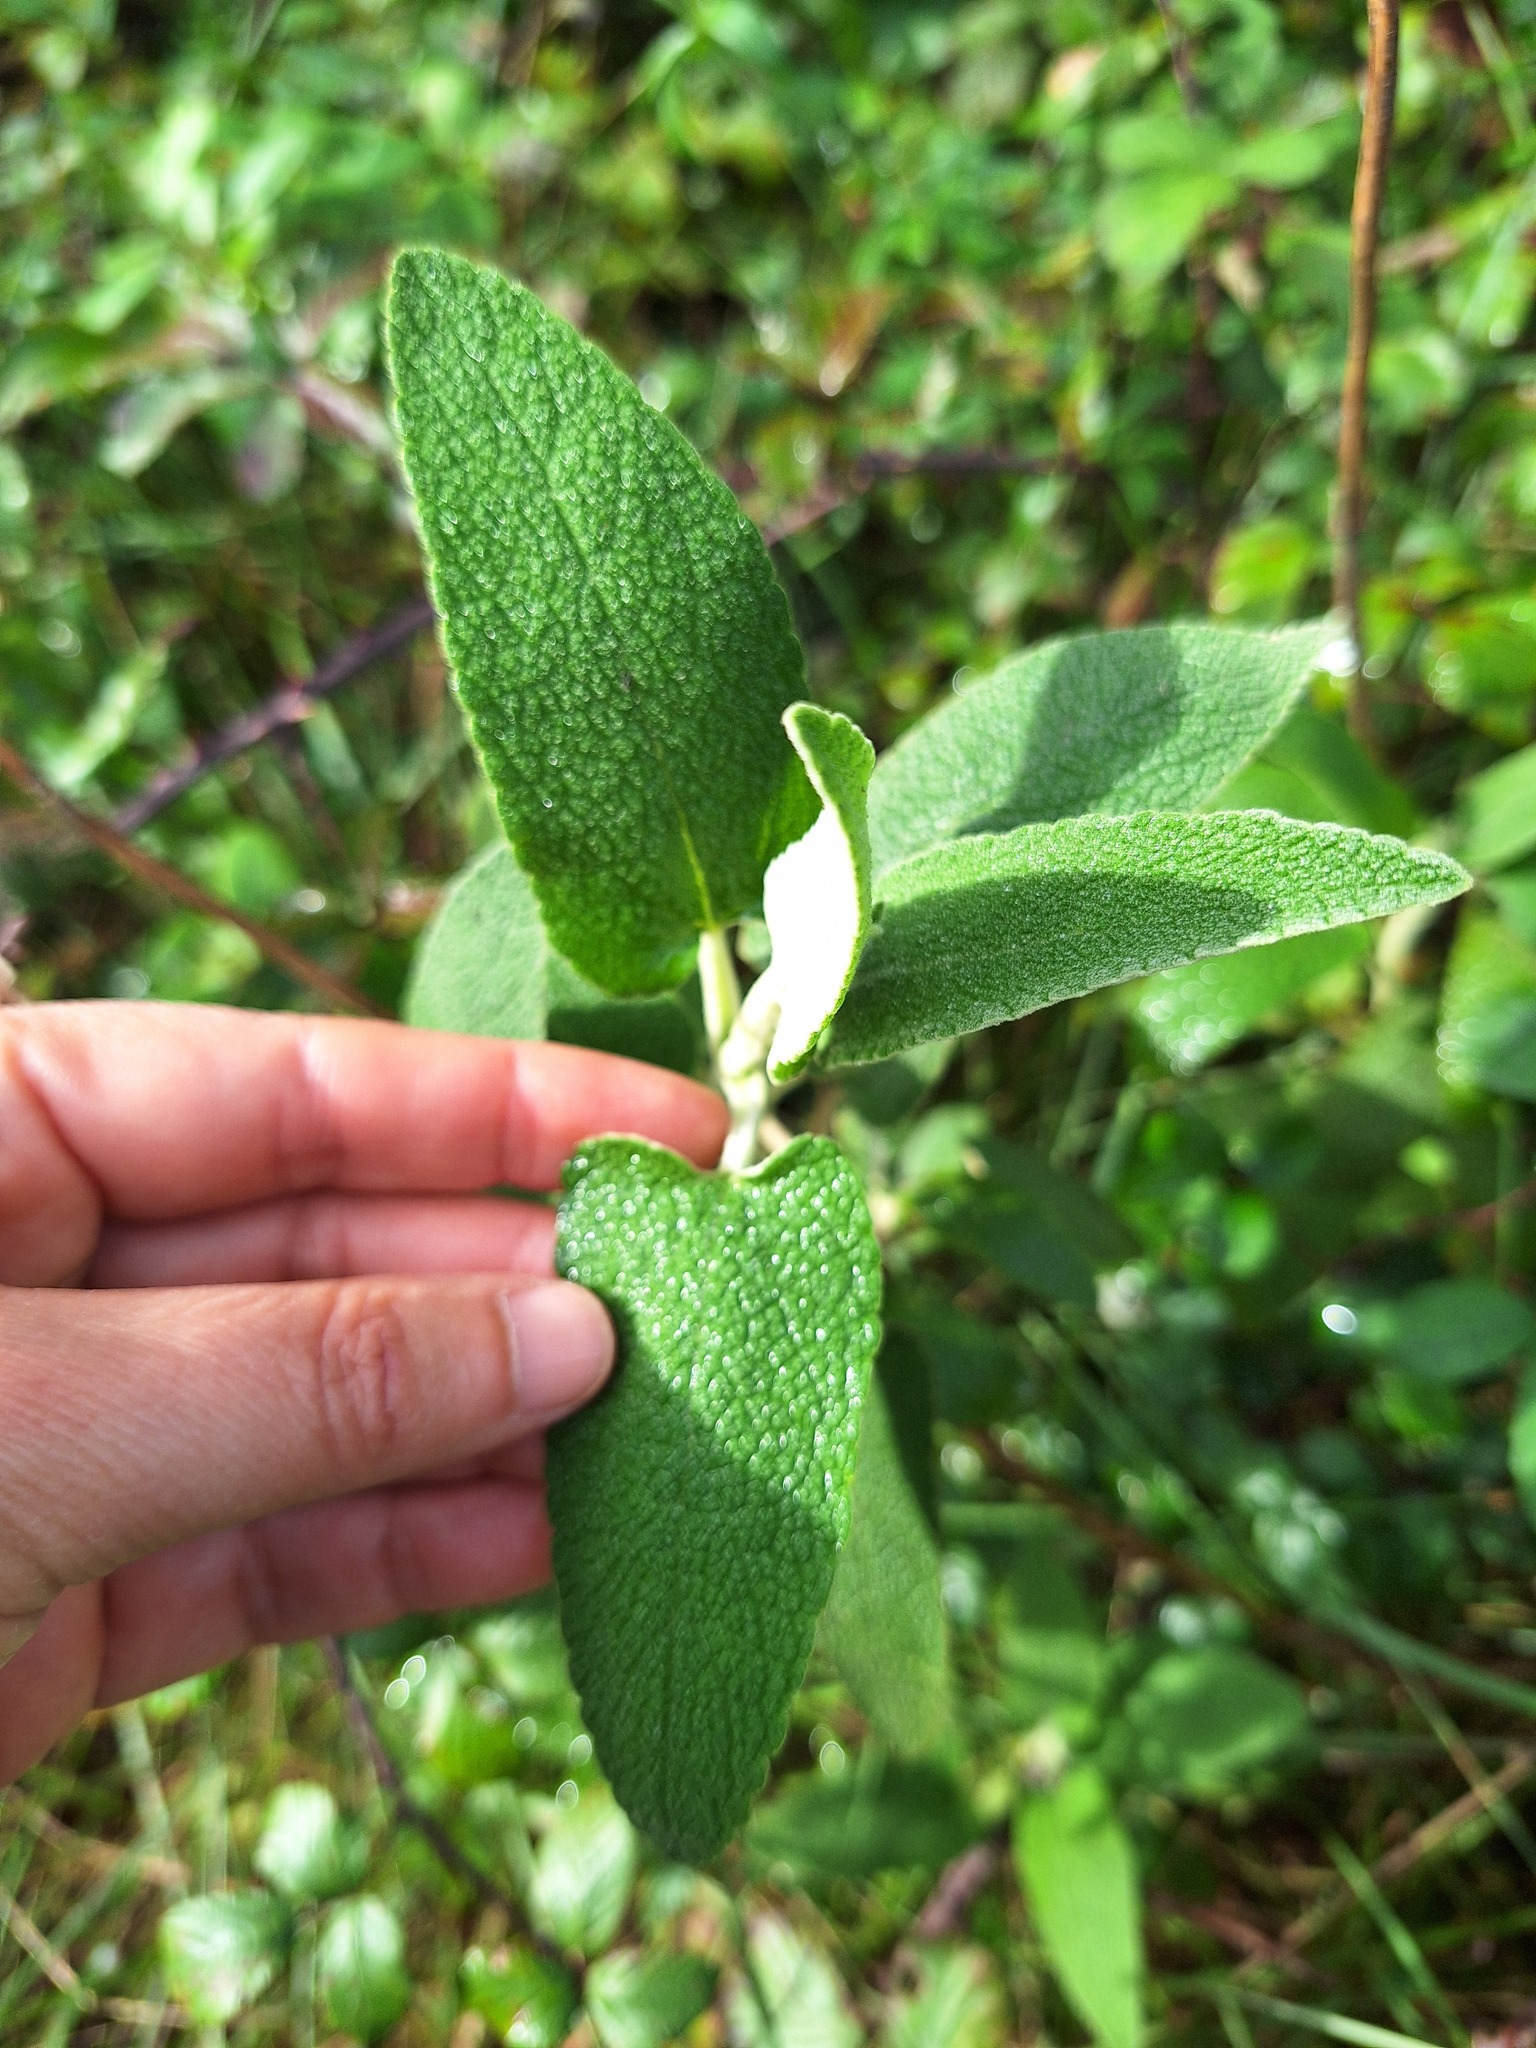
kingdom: Plantae
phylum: Tracheophyta
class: Magnoliopsida
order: Lamiales
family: Lamiaceae
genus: Phlomis
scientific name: Phlomis purpurea
